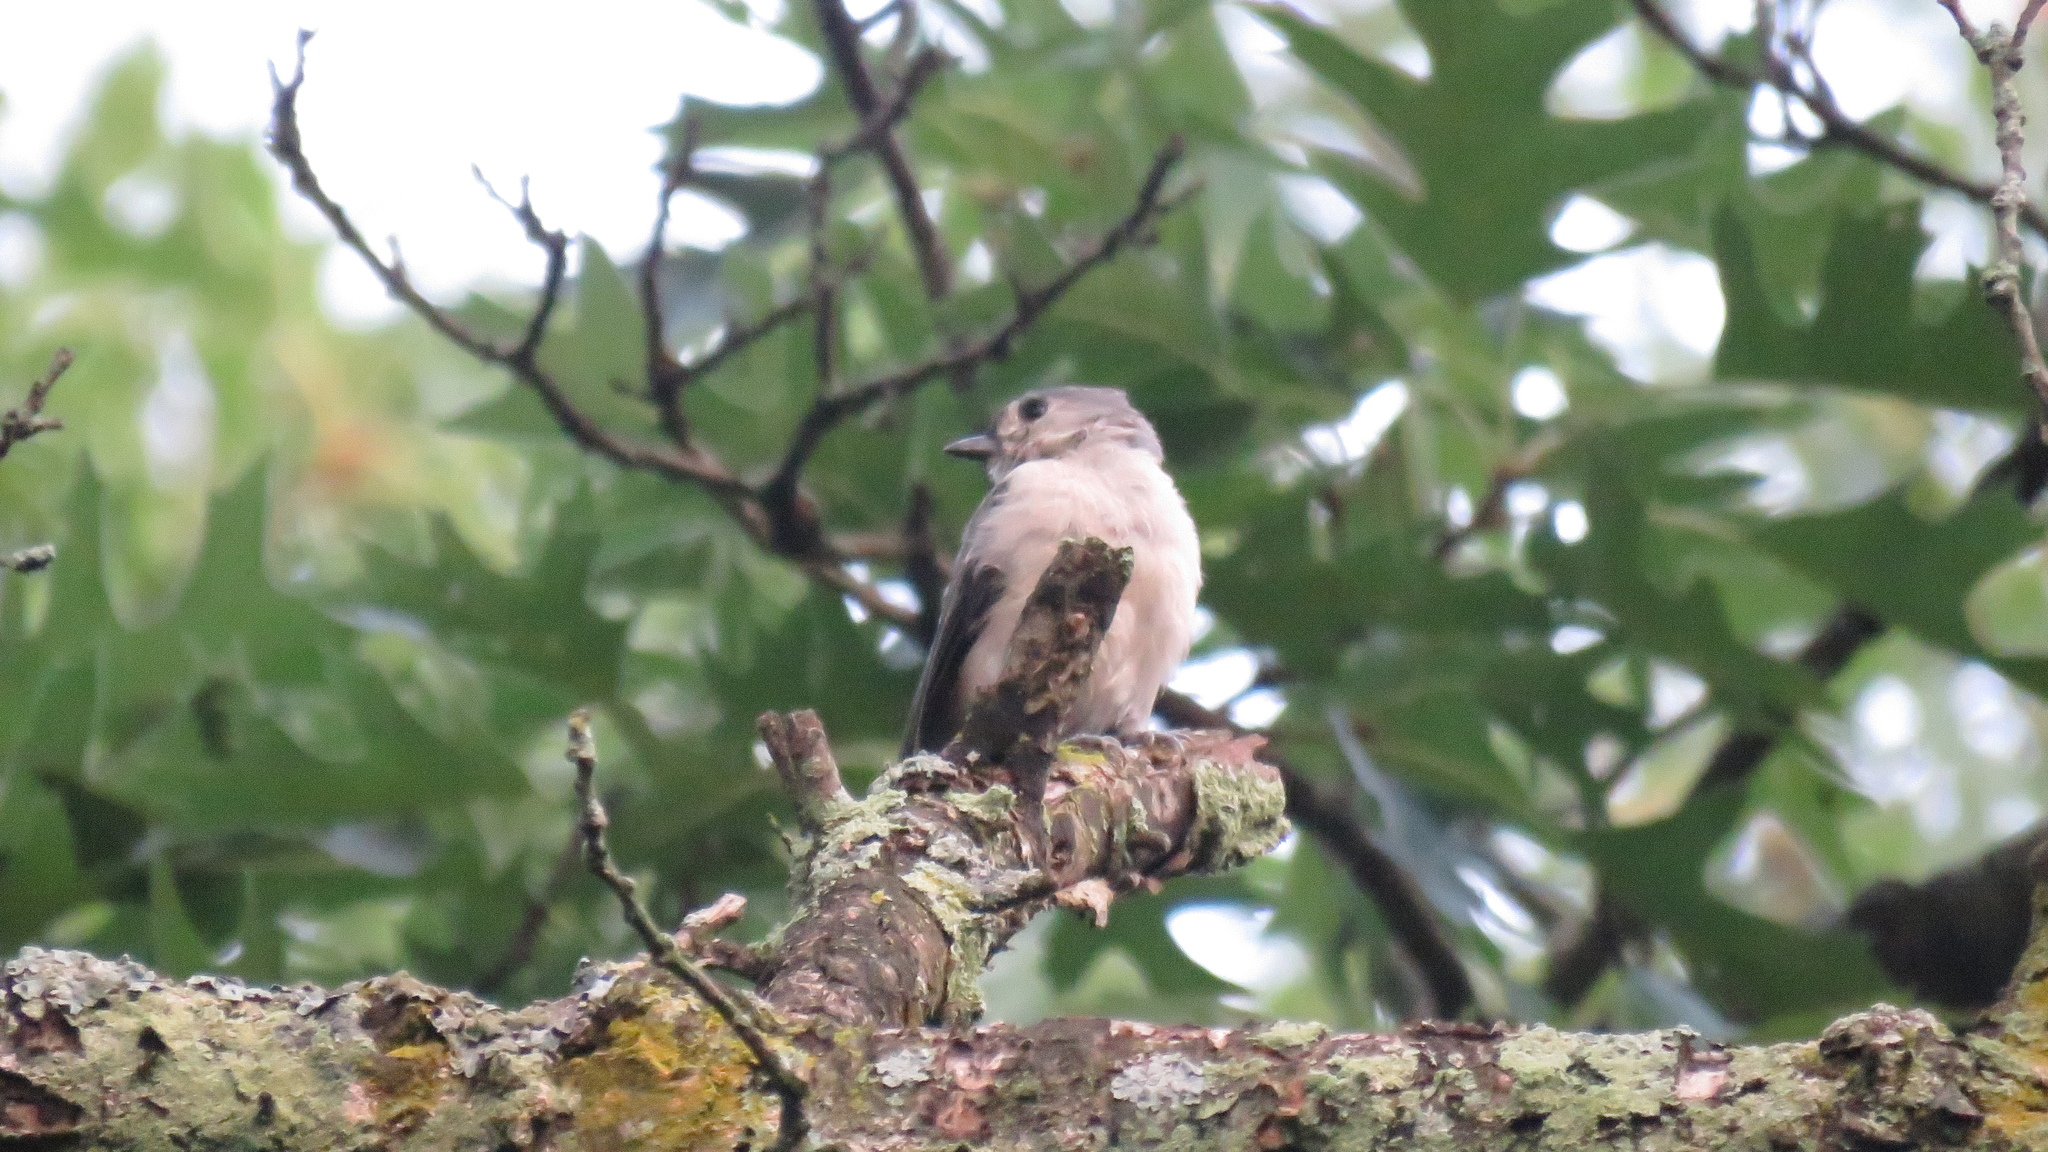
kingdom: Animalia
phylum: Chordata
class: Aves
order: Passeriformes
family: Paridae
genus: Baeolophus
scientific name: Baeolophus bicolor
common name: Tufted titmouse
